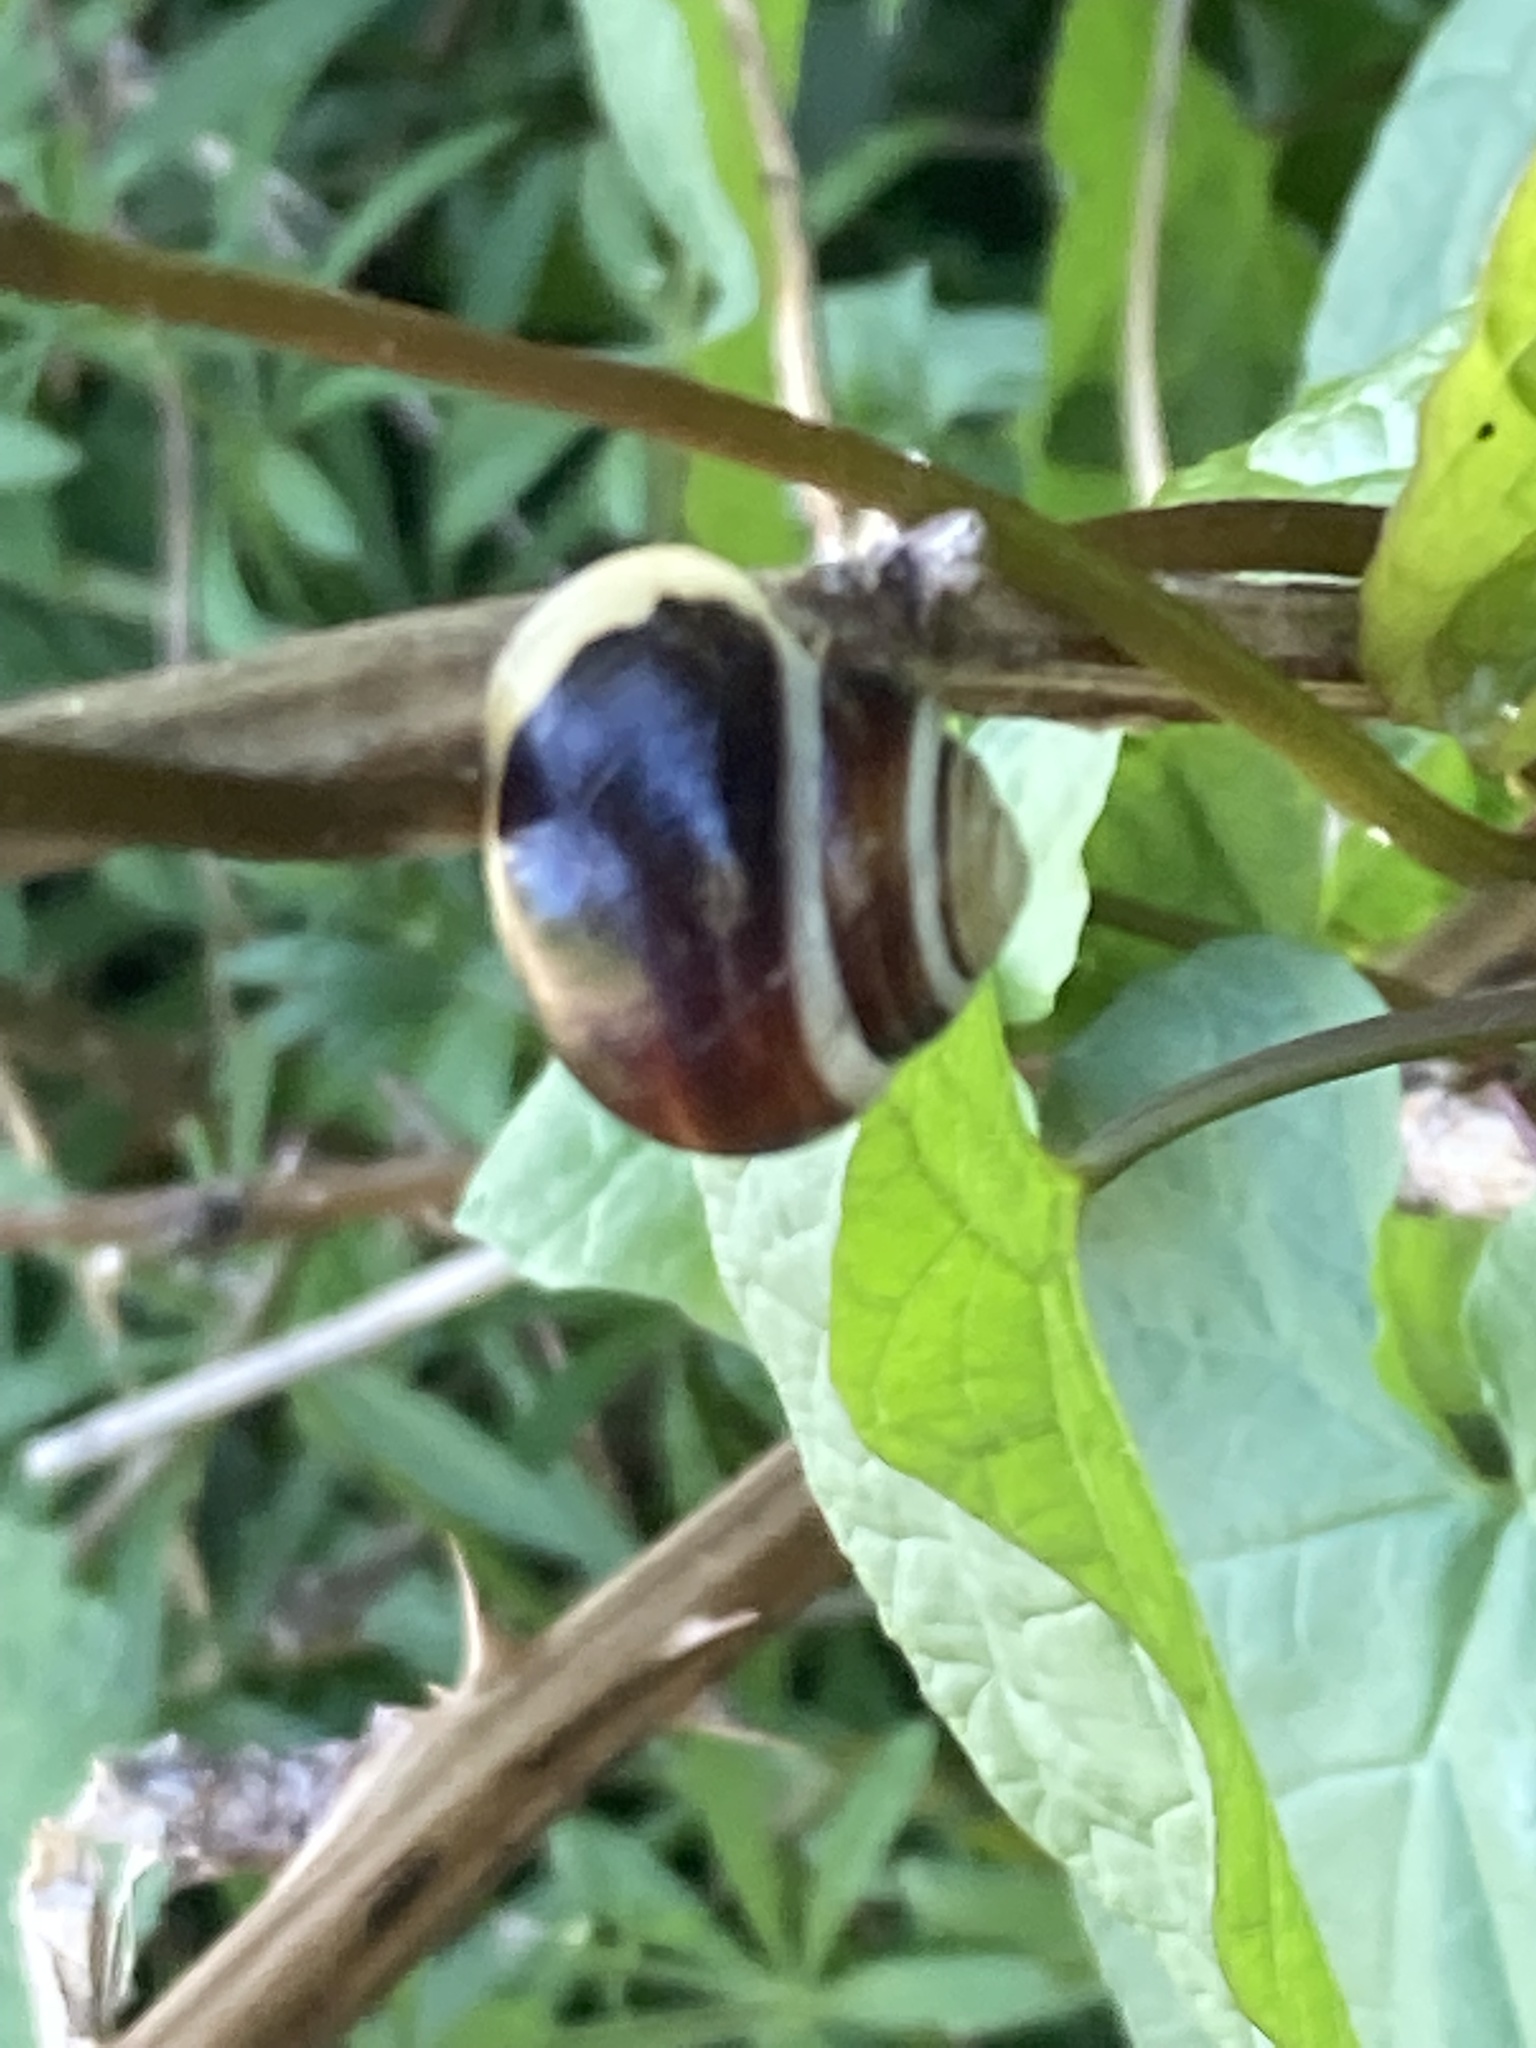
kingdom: Animalia
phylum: Mollusca
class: Gastropoda
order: Stylommatophora
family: Helicidae
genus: Cepaea
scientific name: Cepaea hortensis
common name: White-lip gardensnail
